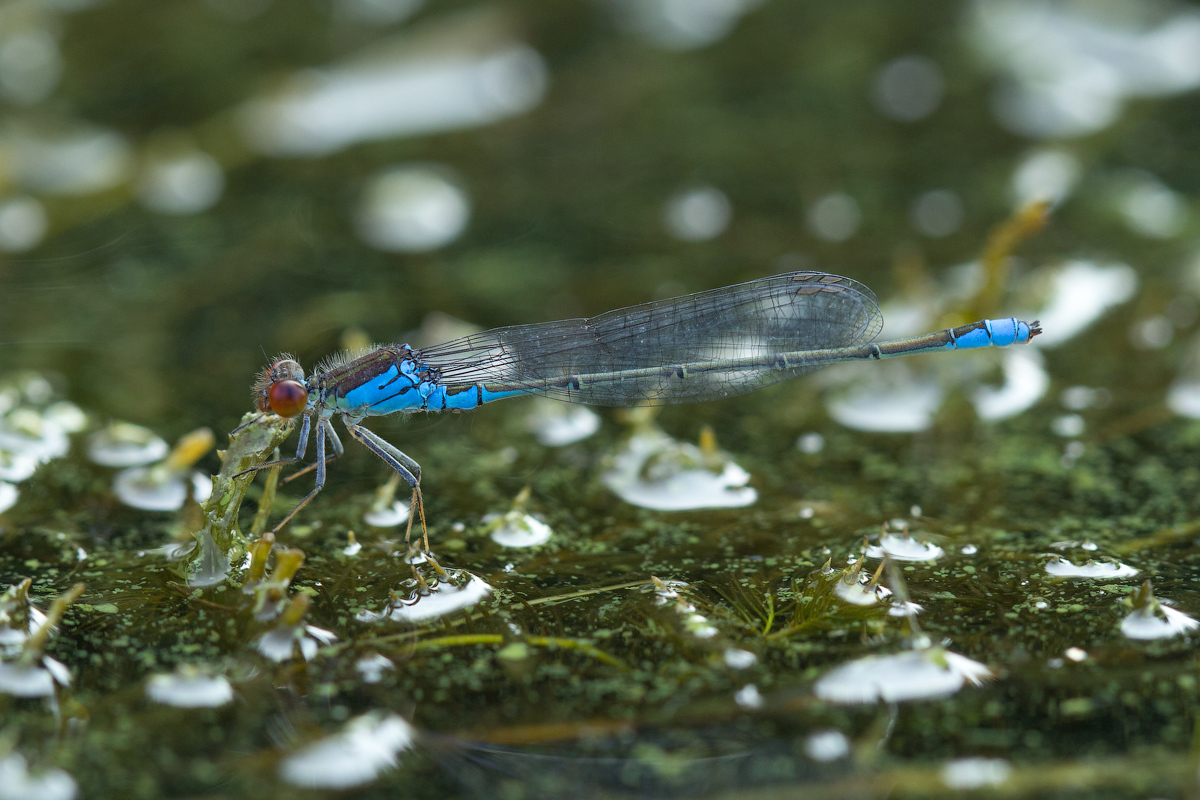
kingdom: Animalia
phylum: Arthropoda
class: Insecta
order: Odonata
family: Coenagrionidae
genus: Erythromma
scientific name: Erythromma viridulum
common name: Small red-eyed damselfly
